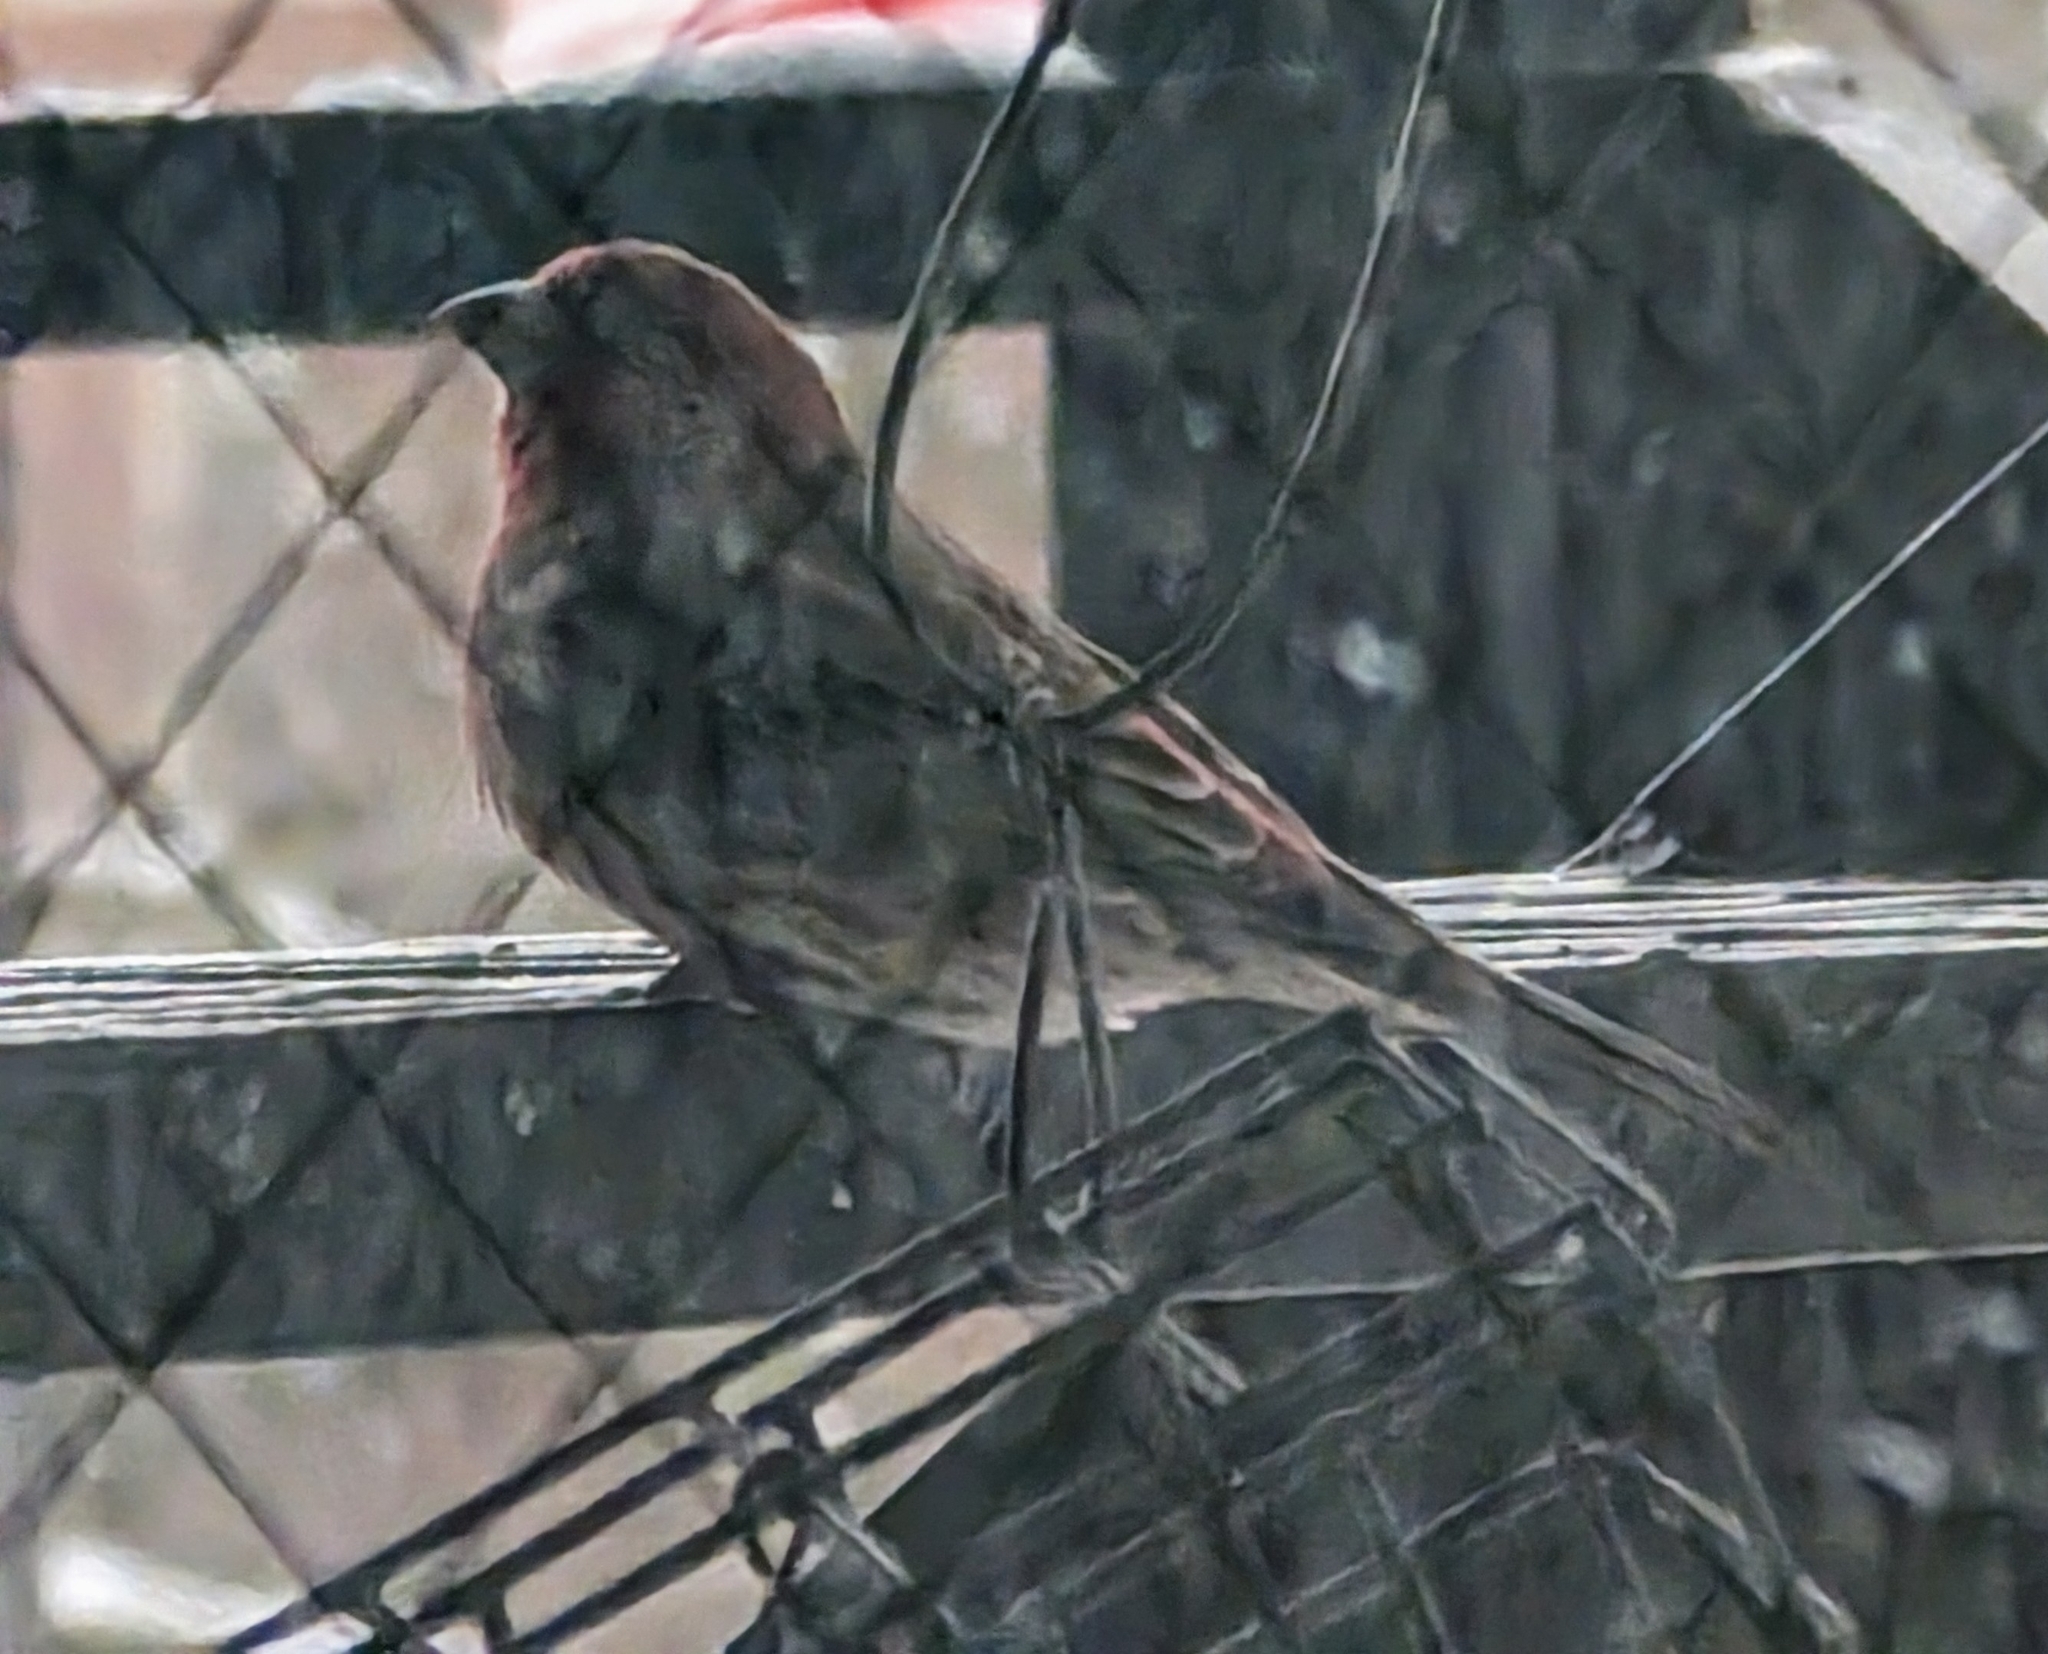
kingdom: Animalia
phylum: Chordata
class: Aves
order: Passeriformes
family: Fringillidae
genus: Haemorhous
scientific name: Haemorhous mexicanus
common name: House finch
